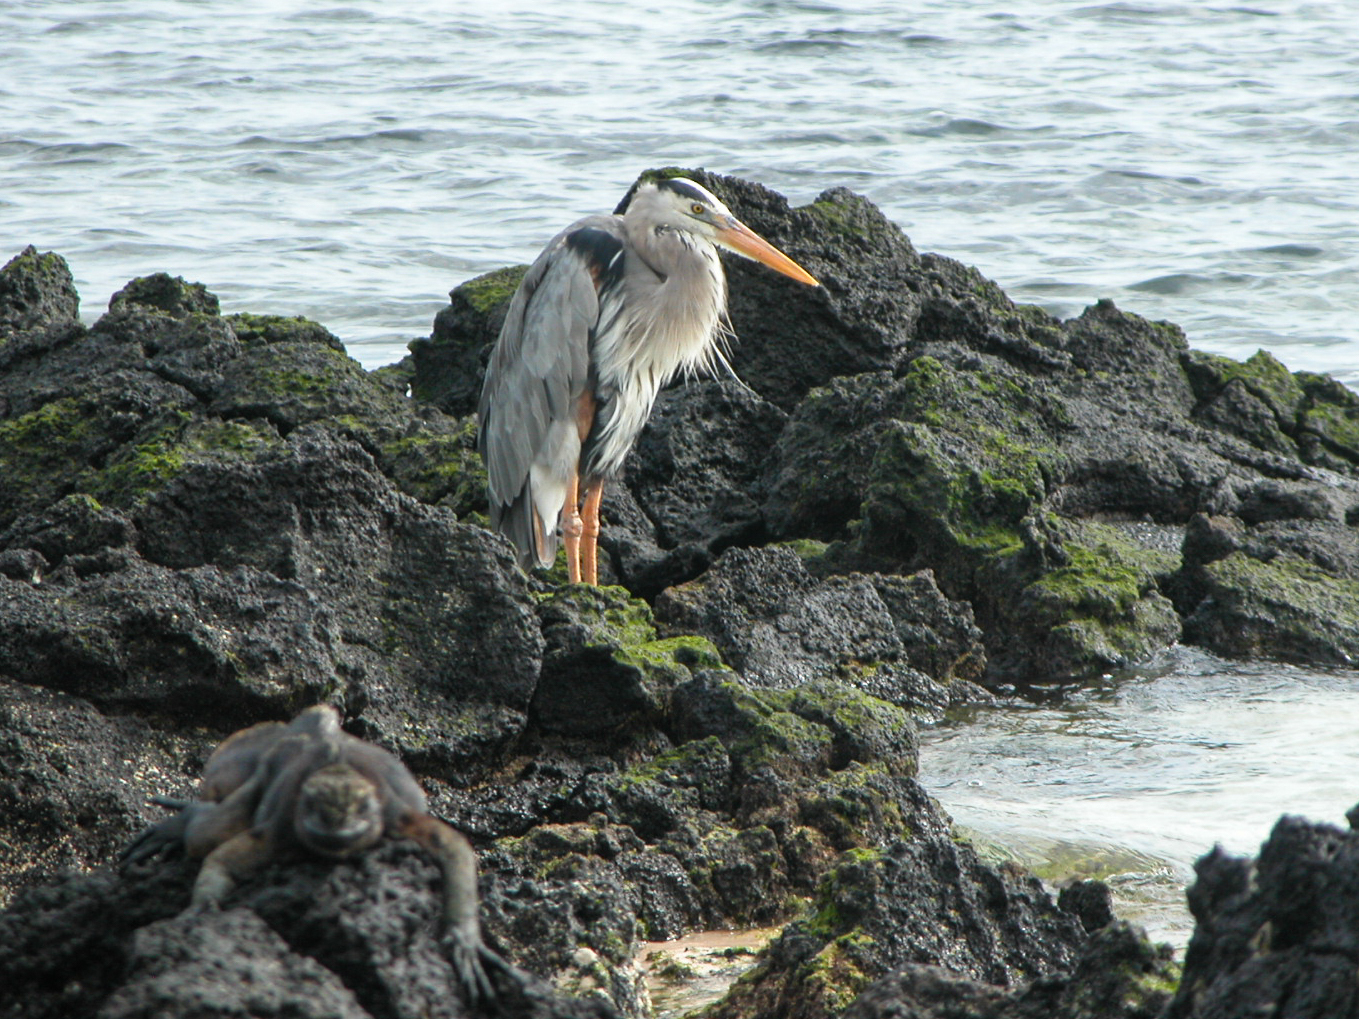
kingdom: Animalia
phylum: Chordata
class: Aves
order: Pelecaniformes
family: Ardeidae
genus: Ardea
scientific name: Ardea herodias
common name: Great blue heron
